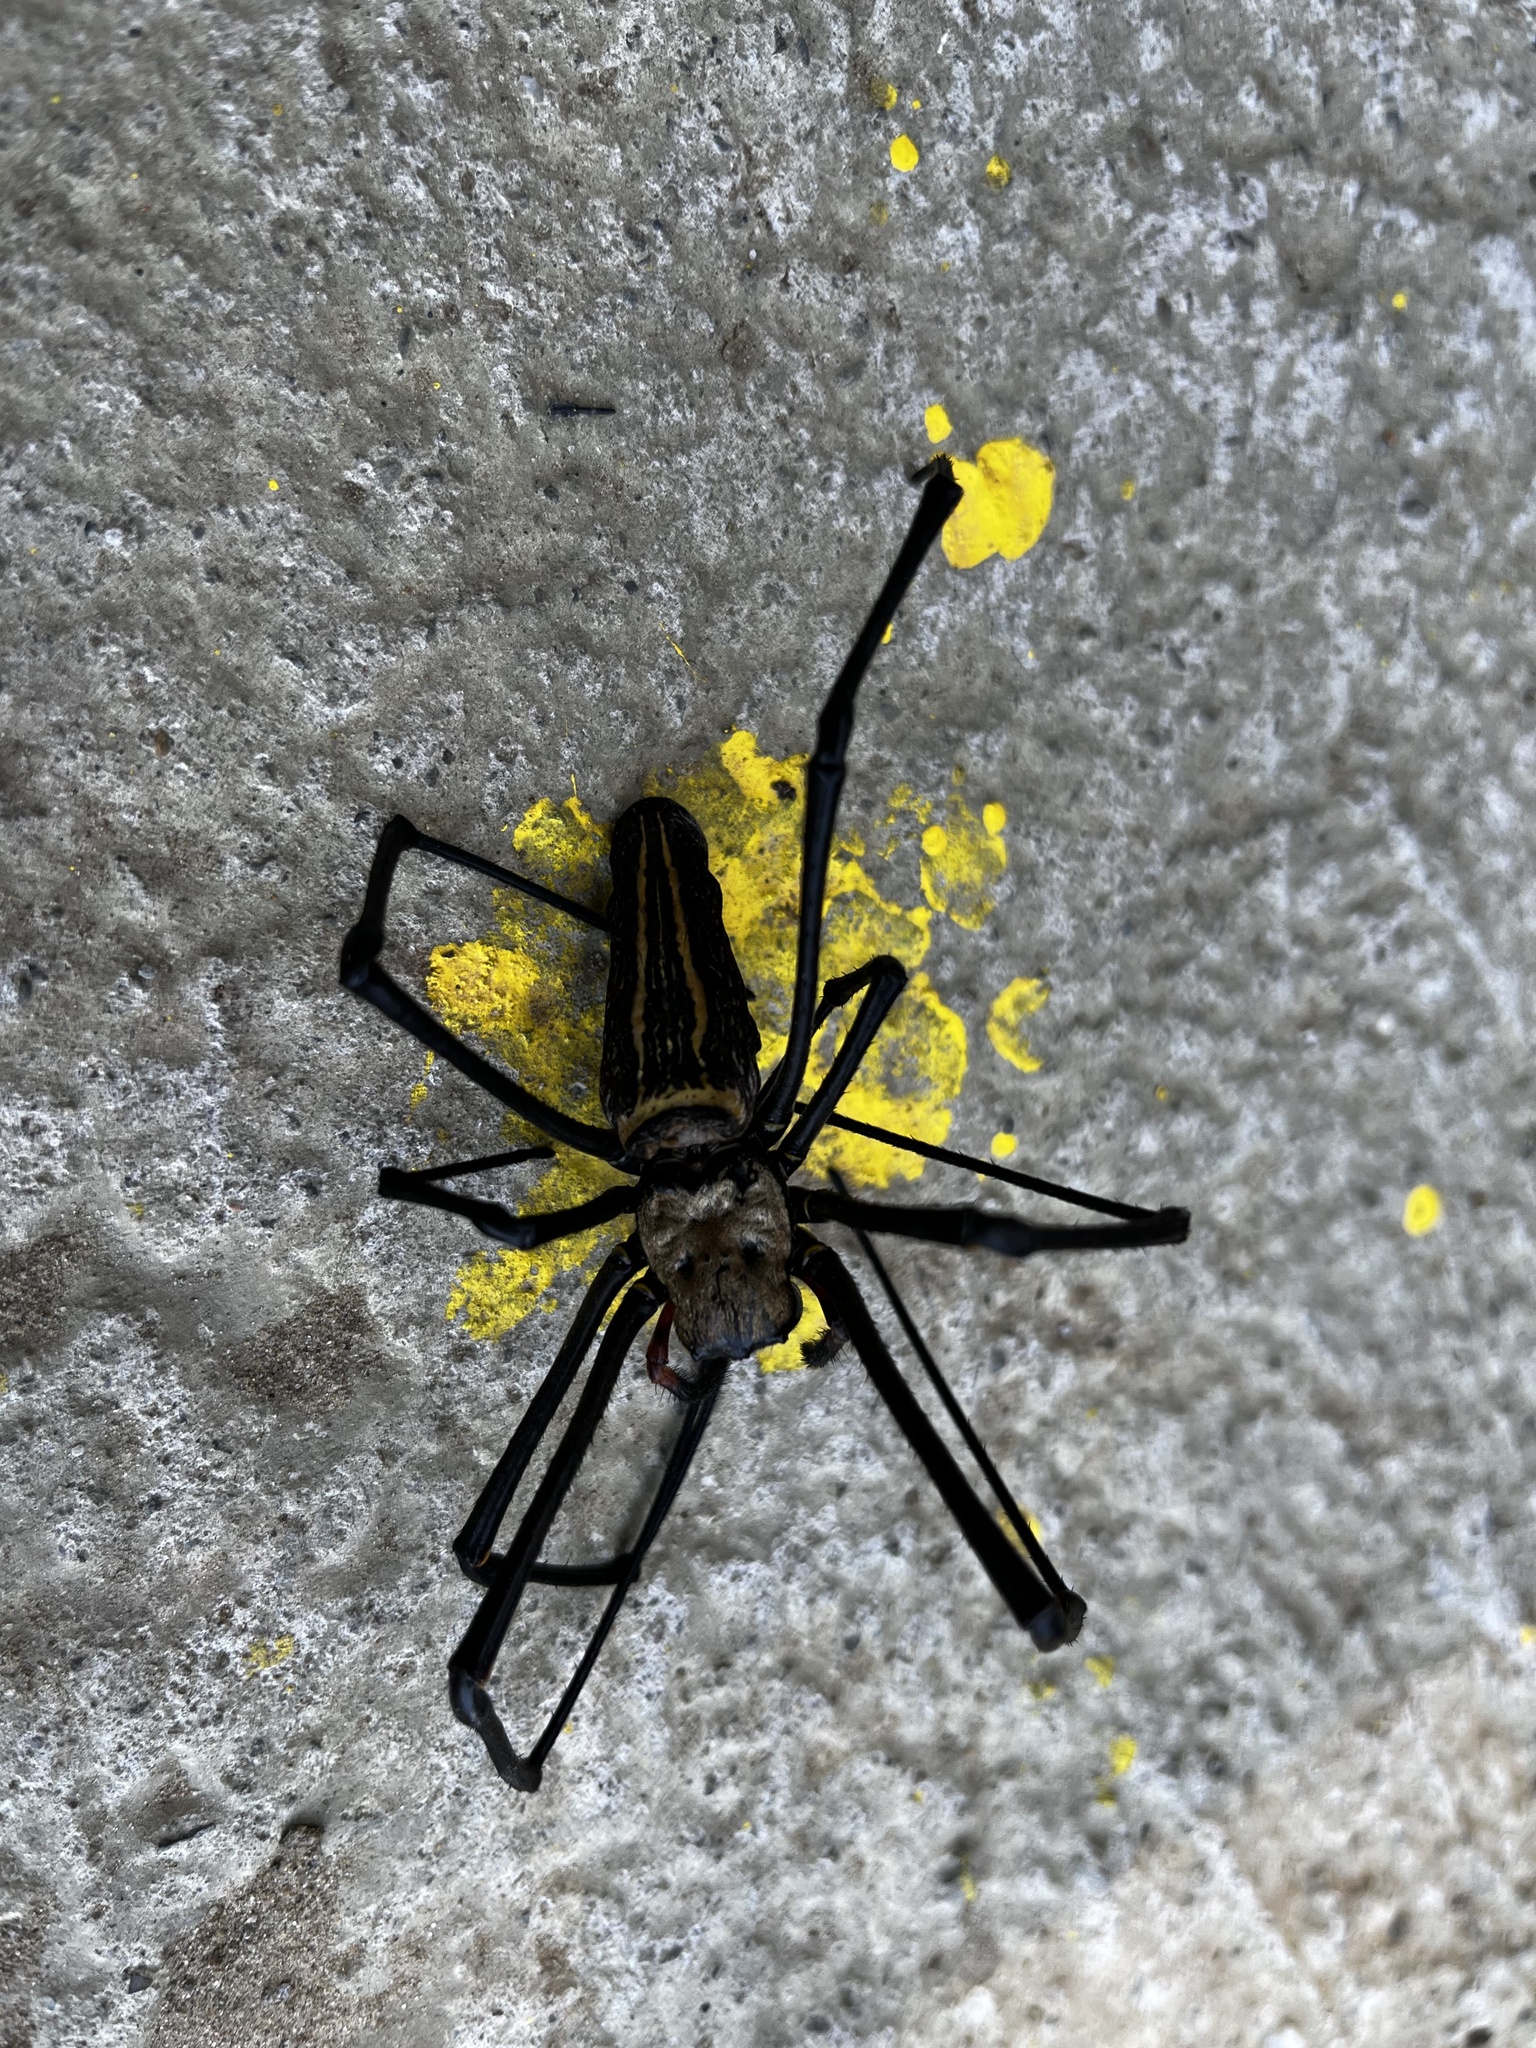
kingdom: Animalia
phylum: Arthropoda
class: Arachnida
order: Araneae
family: Araneidae
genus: Nephila
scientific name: Nephila pilipes
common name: Giant golden orb weaver
